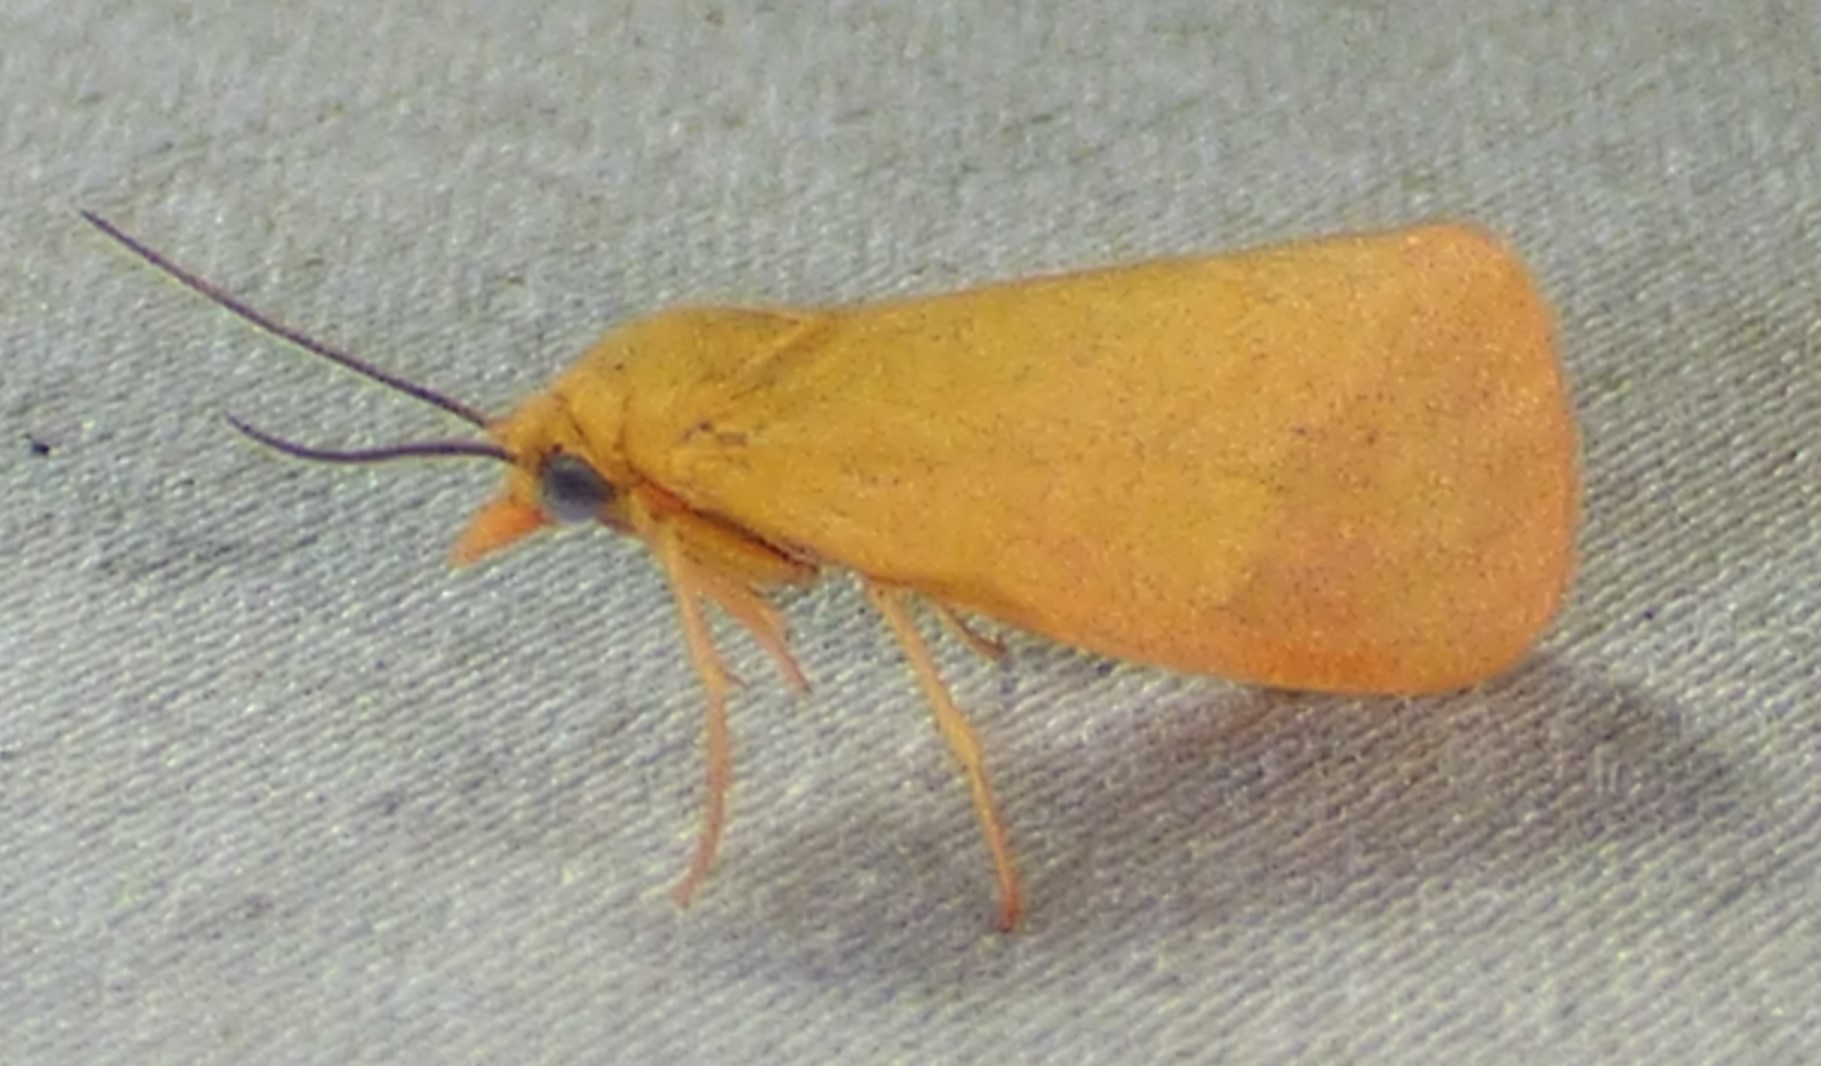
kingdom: Animalia
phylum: Arthropoda
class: Insecta
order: Lepidoptera
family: Erebidae
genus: Virbia
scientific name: Virbia aurantiaca
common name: Orange virbia moth
